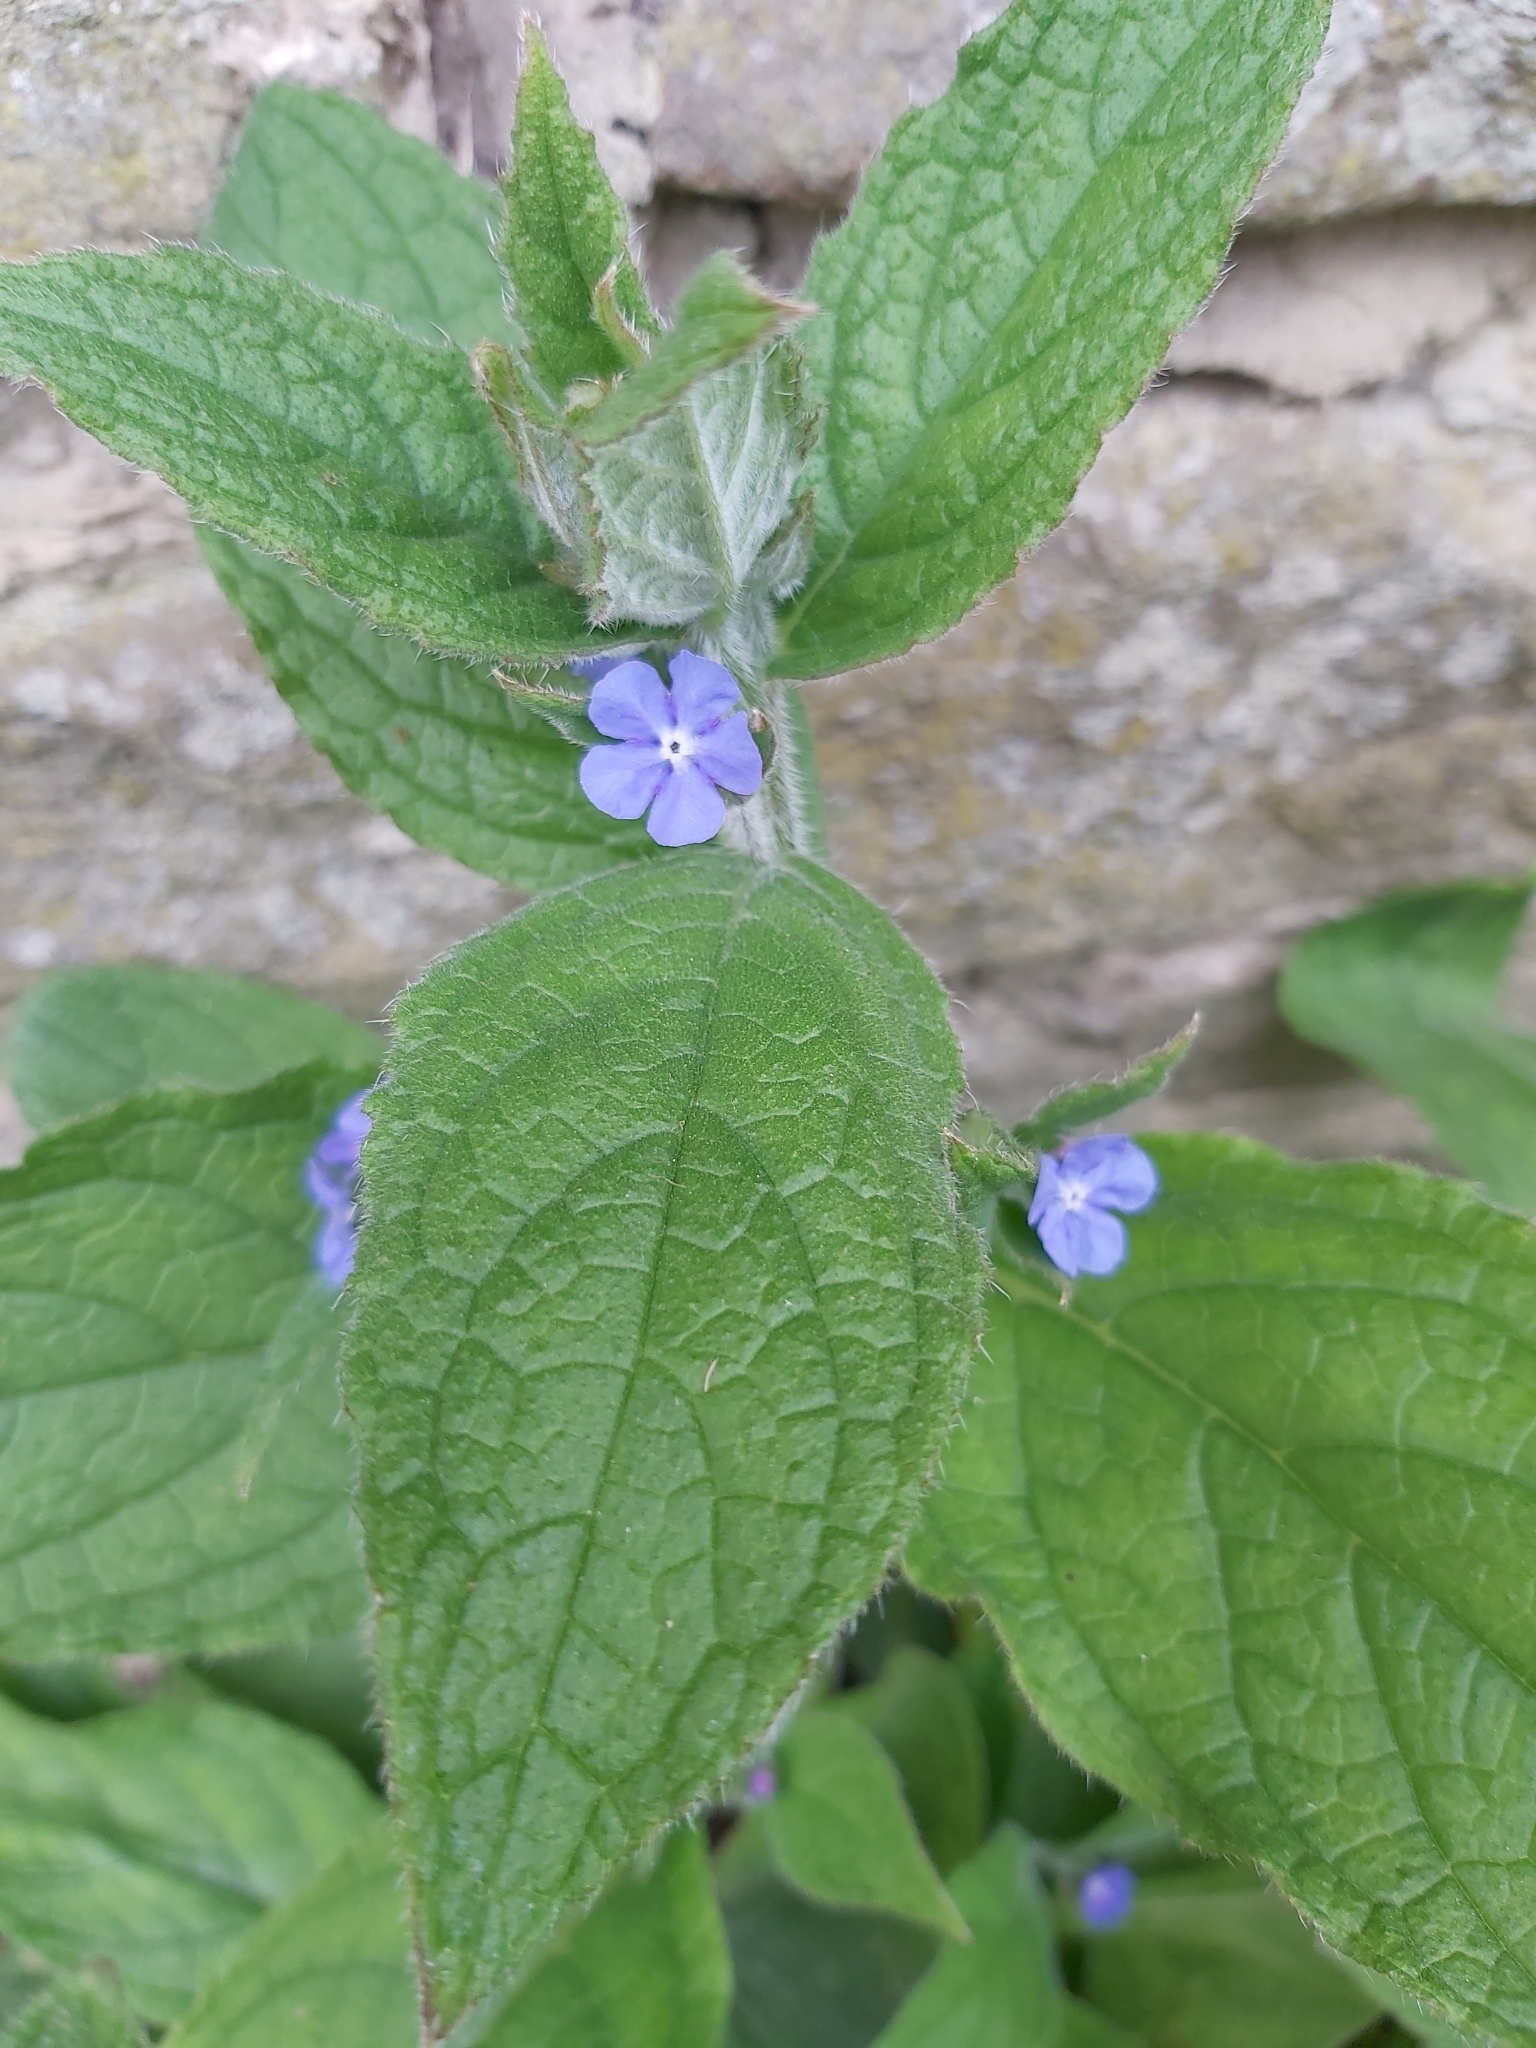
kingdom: Plantae
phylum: Tracheophyta
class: Magnoliopsida
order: Boraginales
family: Boraginaceae
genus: Pentaglottis
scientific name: Pentaglottis sempervirens
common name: Green alkanet
